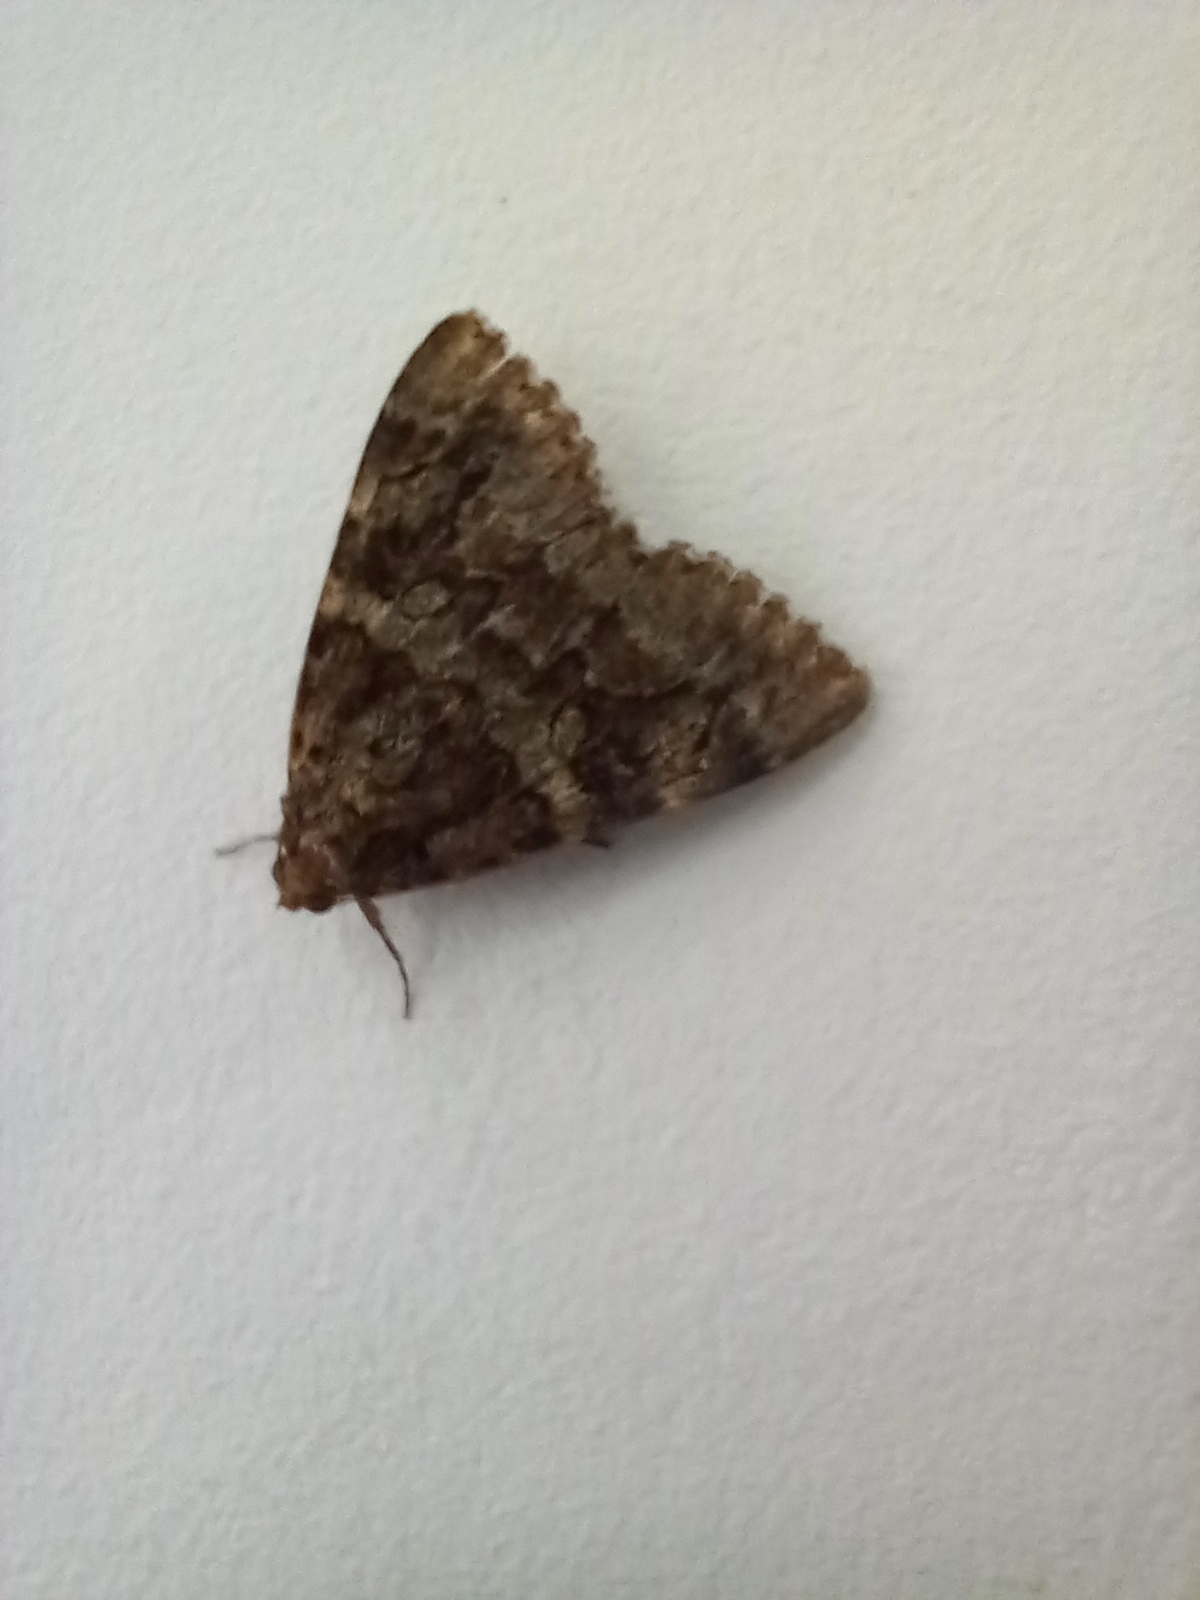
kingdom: Animalia
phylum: Arthropoda
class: Insecta
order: Lepidoptera
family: Erebidae
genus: Catocala
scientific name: Catocala coniuncta
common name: Minsmere crimson underwing
